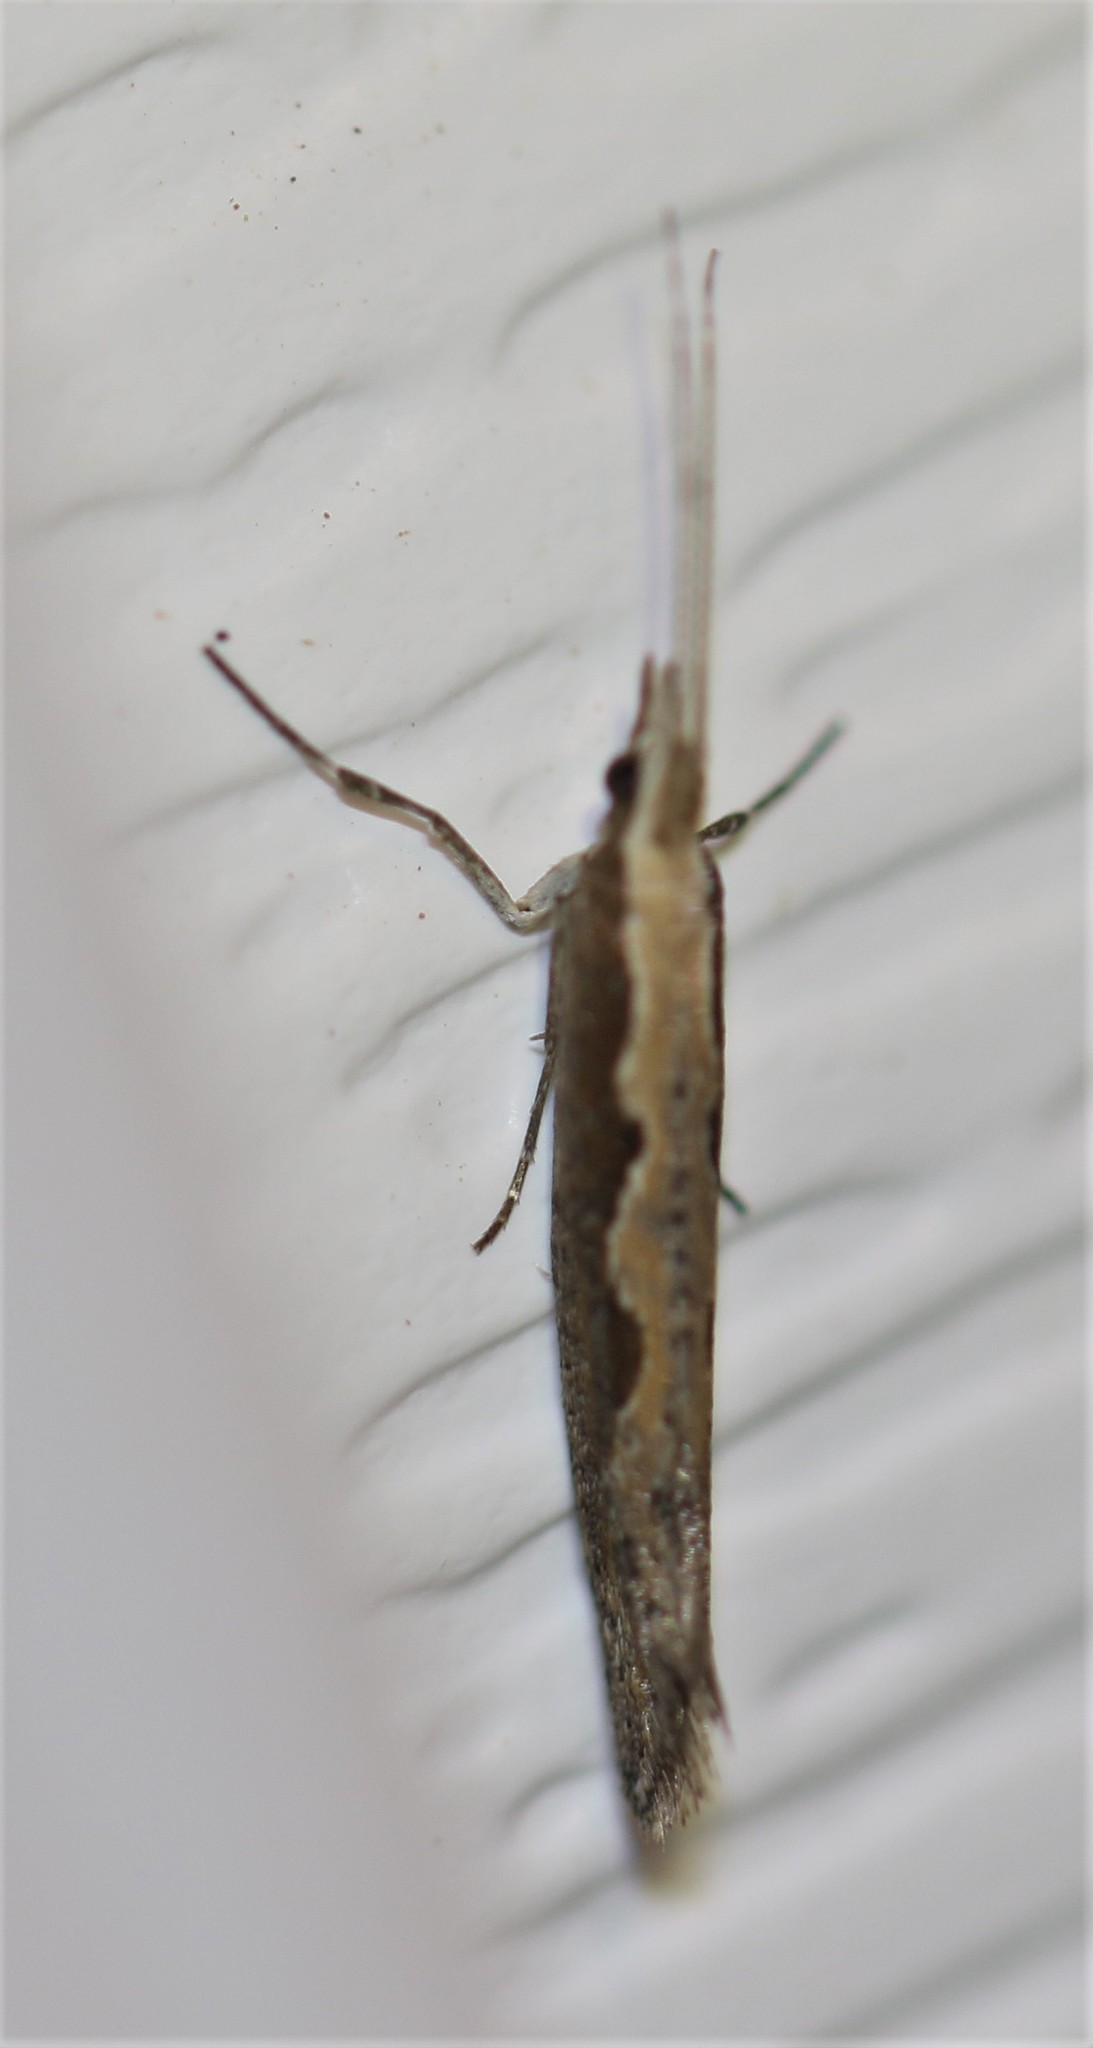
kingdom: Animalia
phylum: Arthropoda
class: Insecta
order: Lepidoptera
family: Plutellidae
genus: Plutella
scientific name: Plutella xylostella
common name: Diamond-back moth
